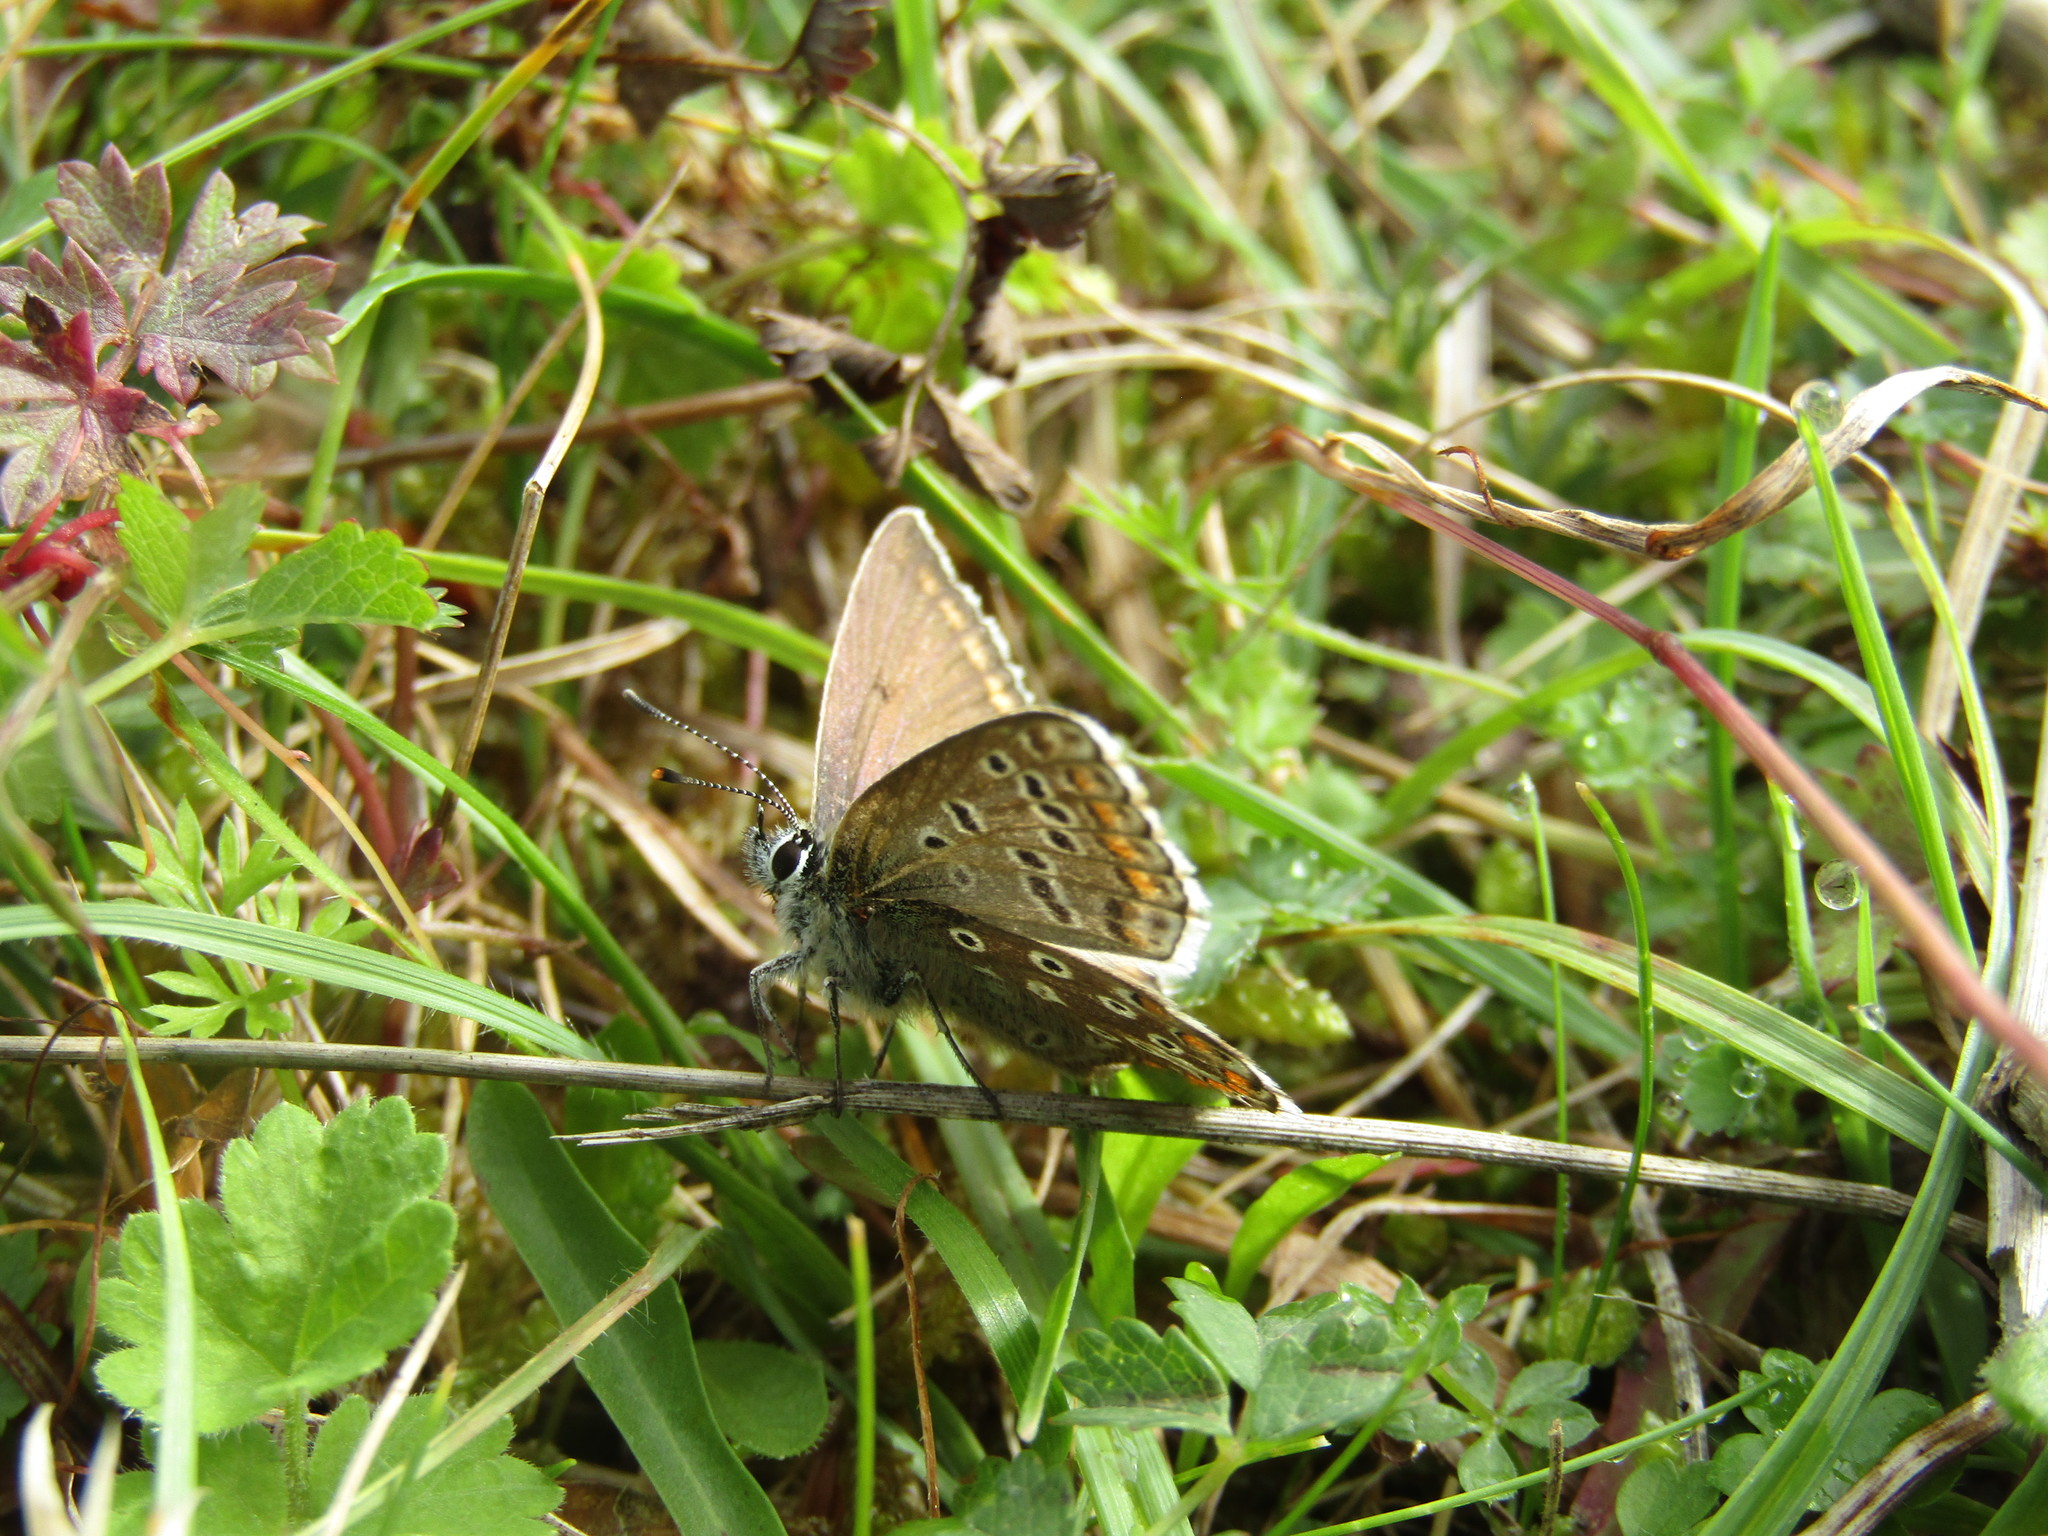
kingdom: Animalia
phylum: Arthropoda
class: Insecta
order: Lepidoptera
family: Lycaenidae
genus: Polyommatus
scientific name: Polyommatus icarus
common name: Common blue
